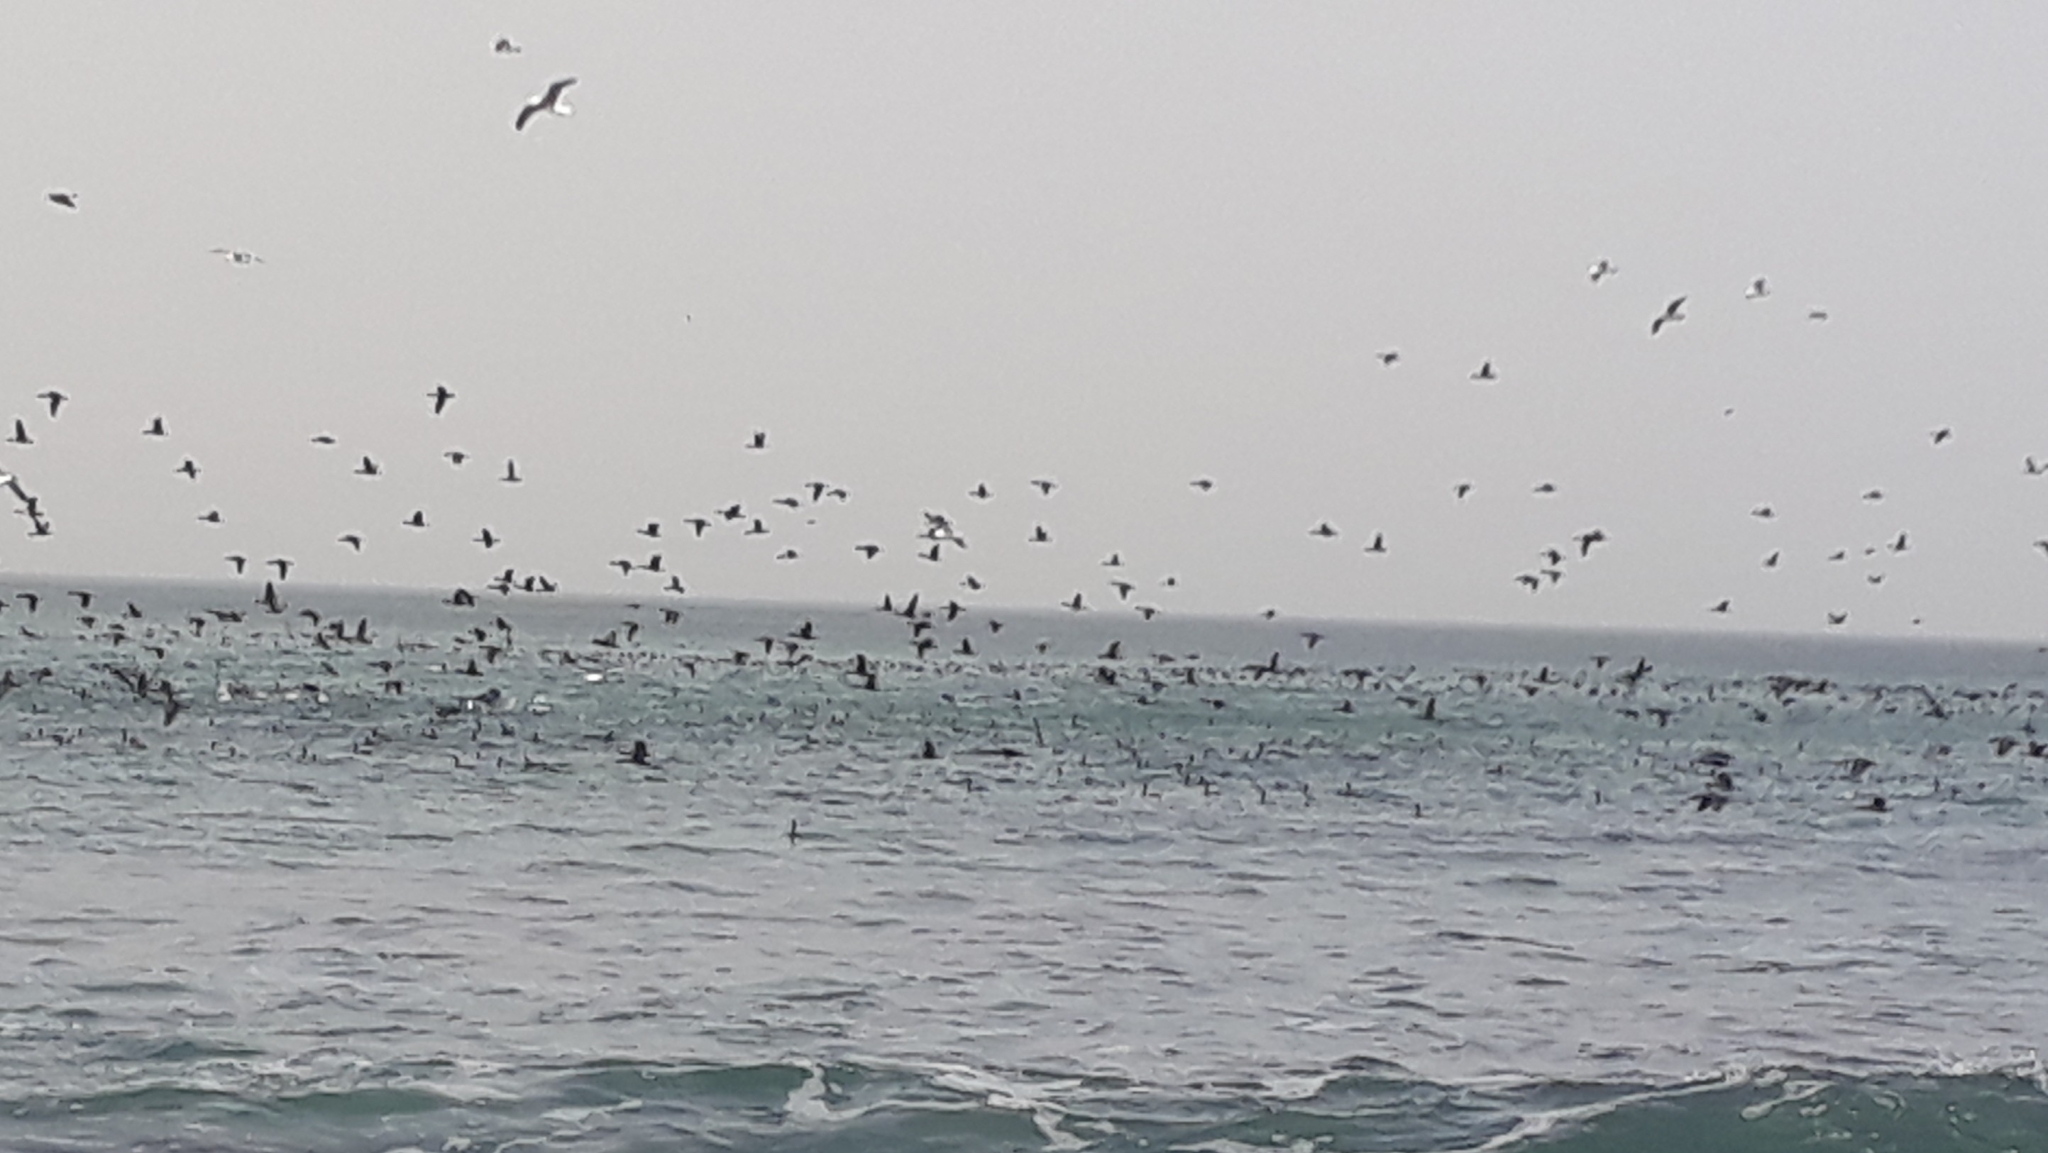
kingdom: Animalia
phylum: Chordata
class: Aves
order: Suliformes
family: Phalacrocoracidae
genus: Phalacrocorax
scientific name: Phalacrocorax capensis
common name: Cape cormorant
